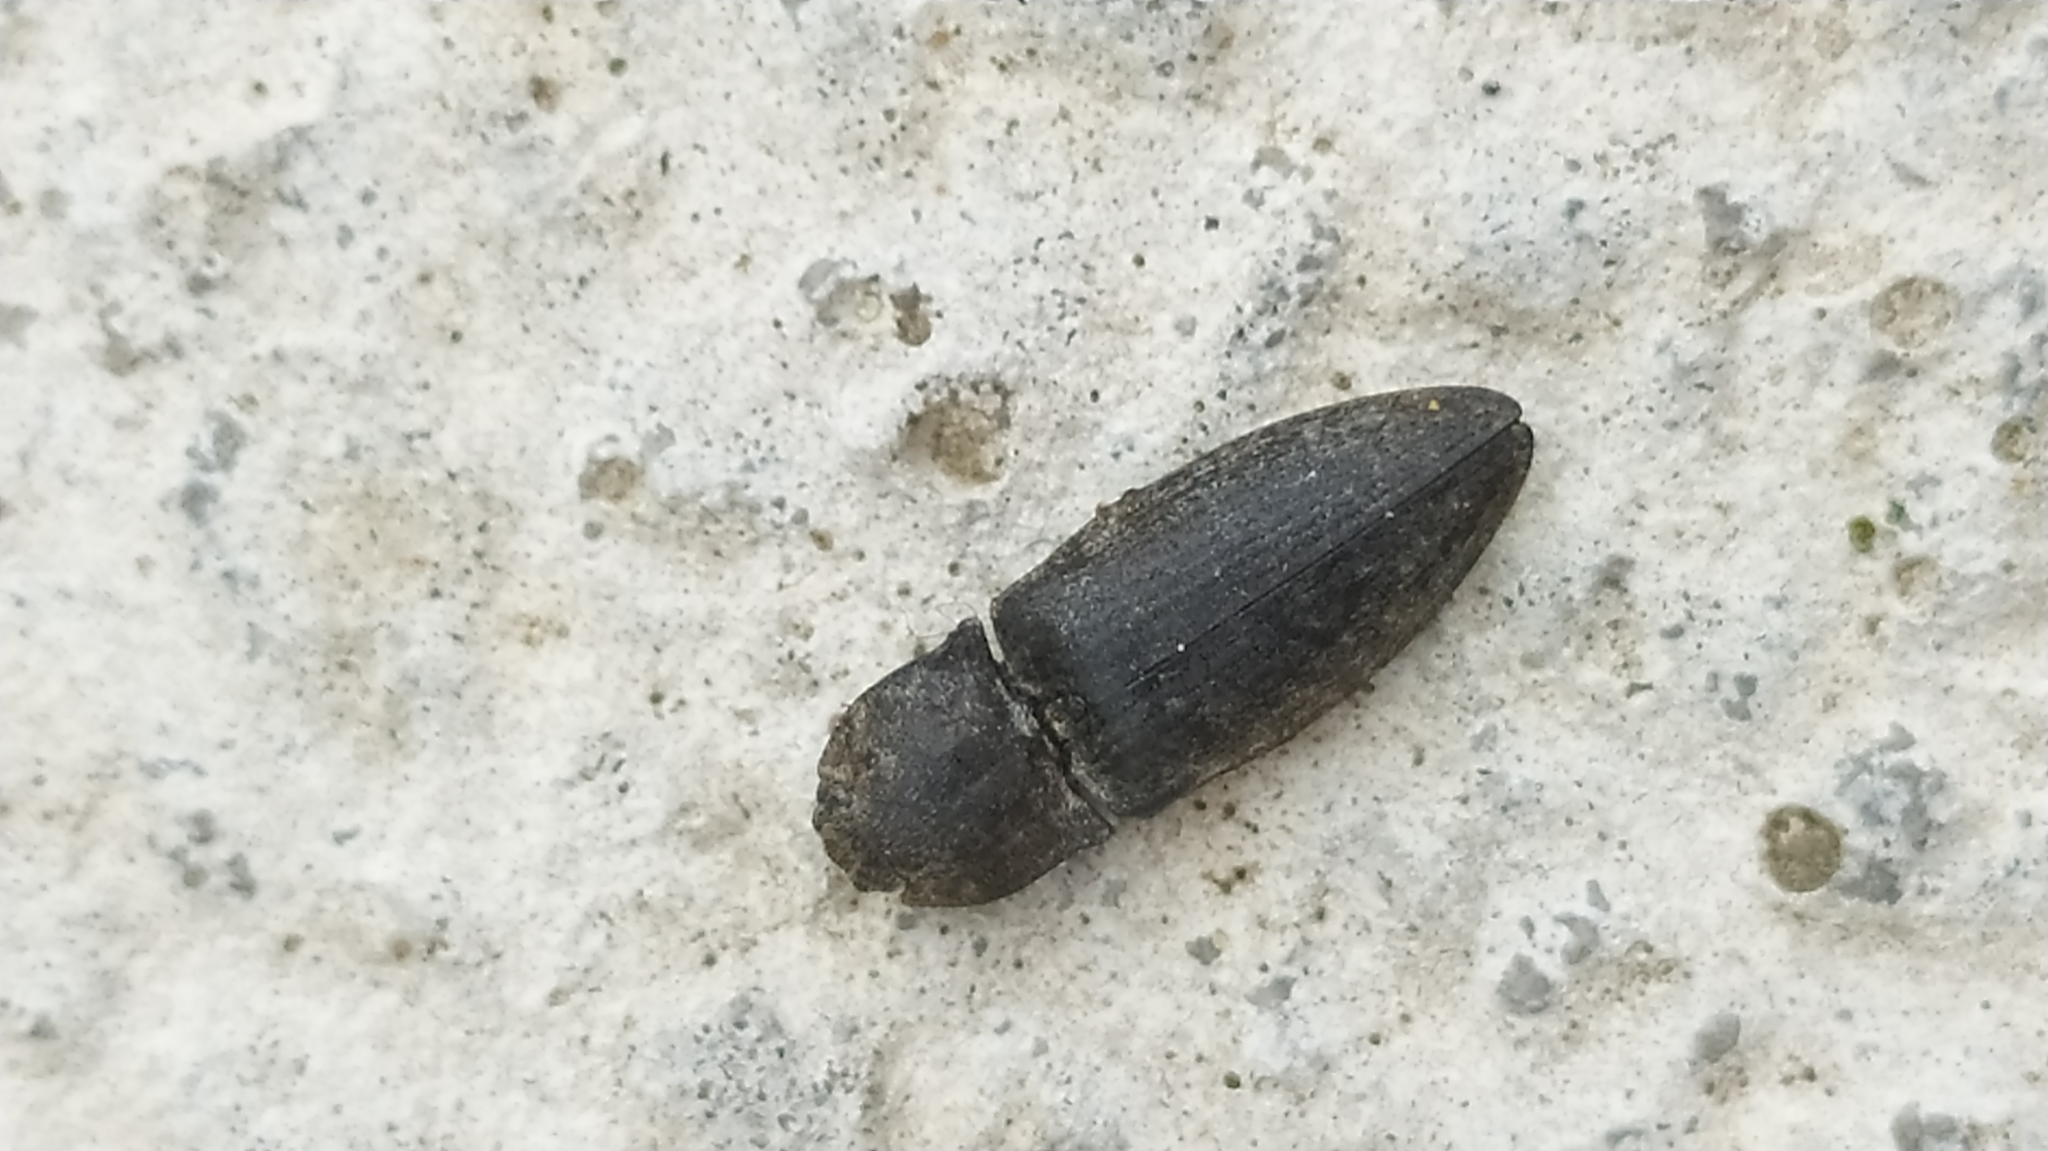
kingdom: Animalia
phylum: Arthropoda
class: Insecta
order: Coleoptera
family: Elateridae
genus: Agrypnus
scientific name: Agrypnus murinus
